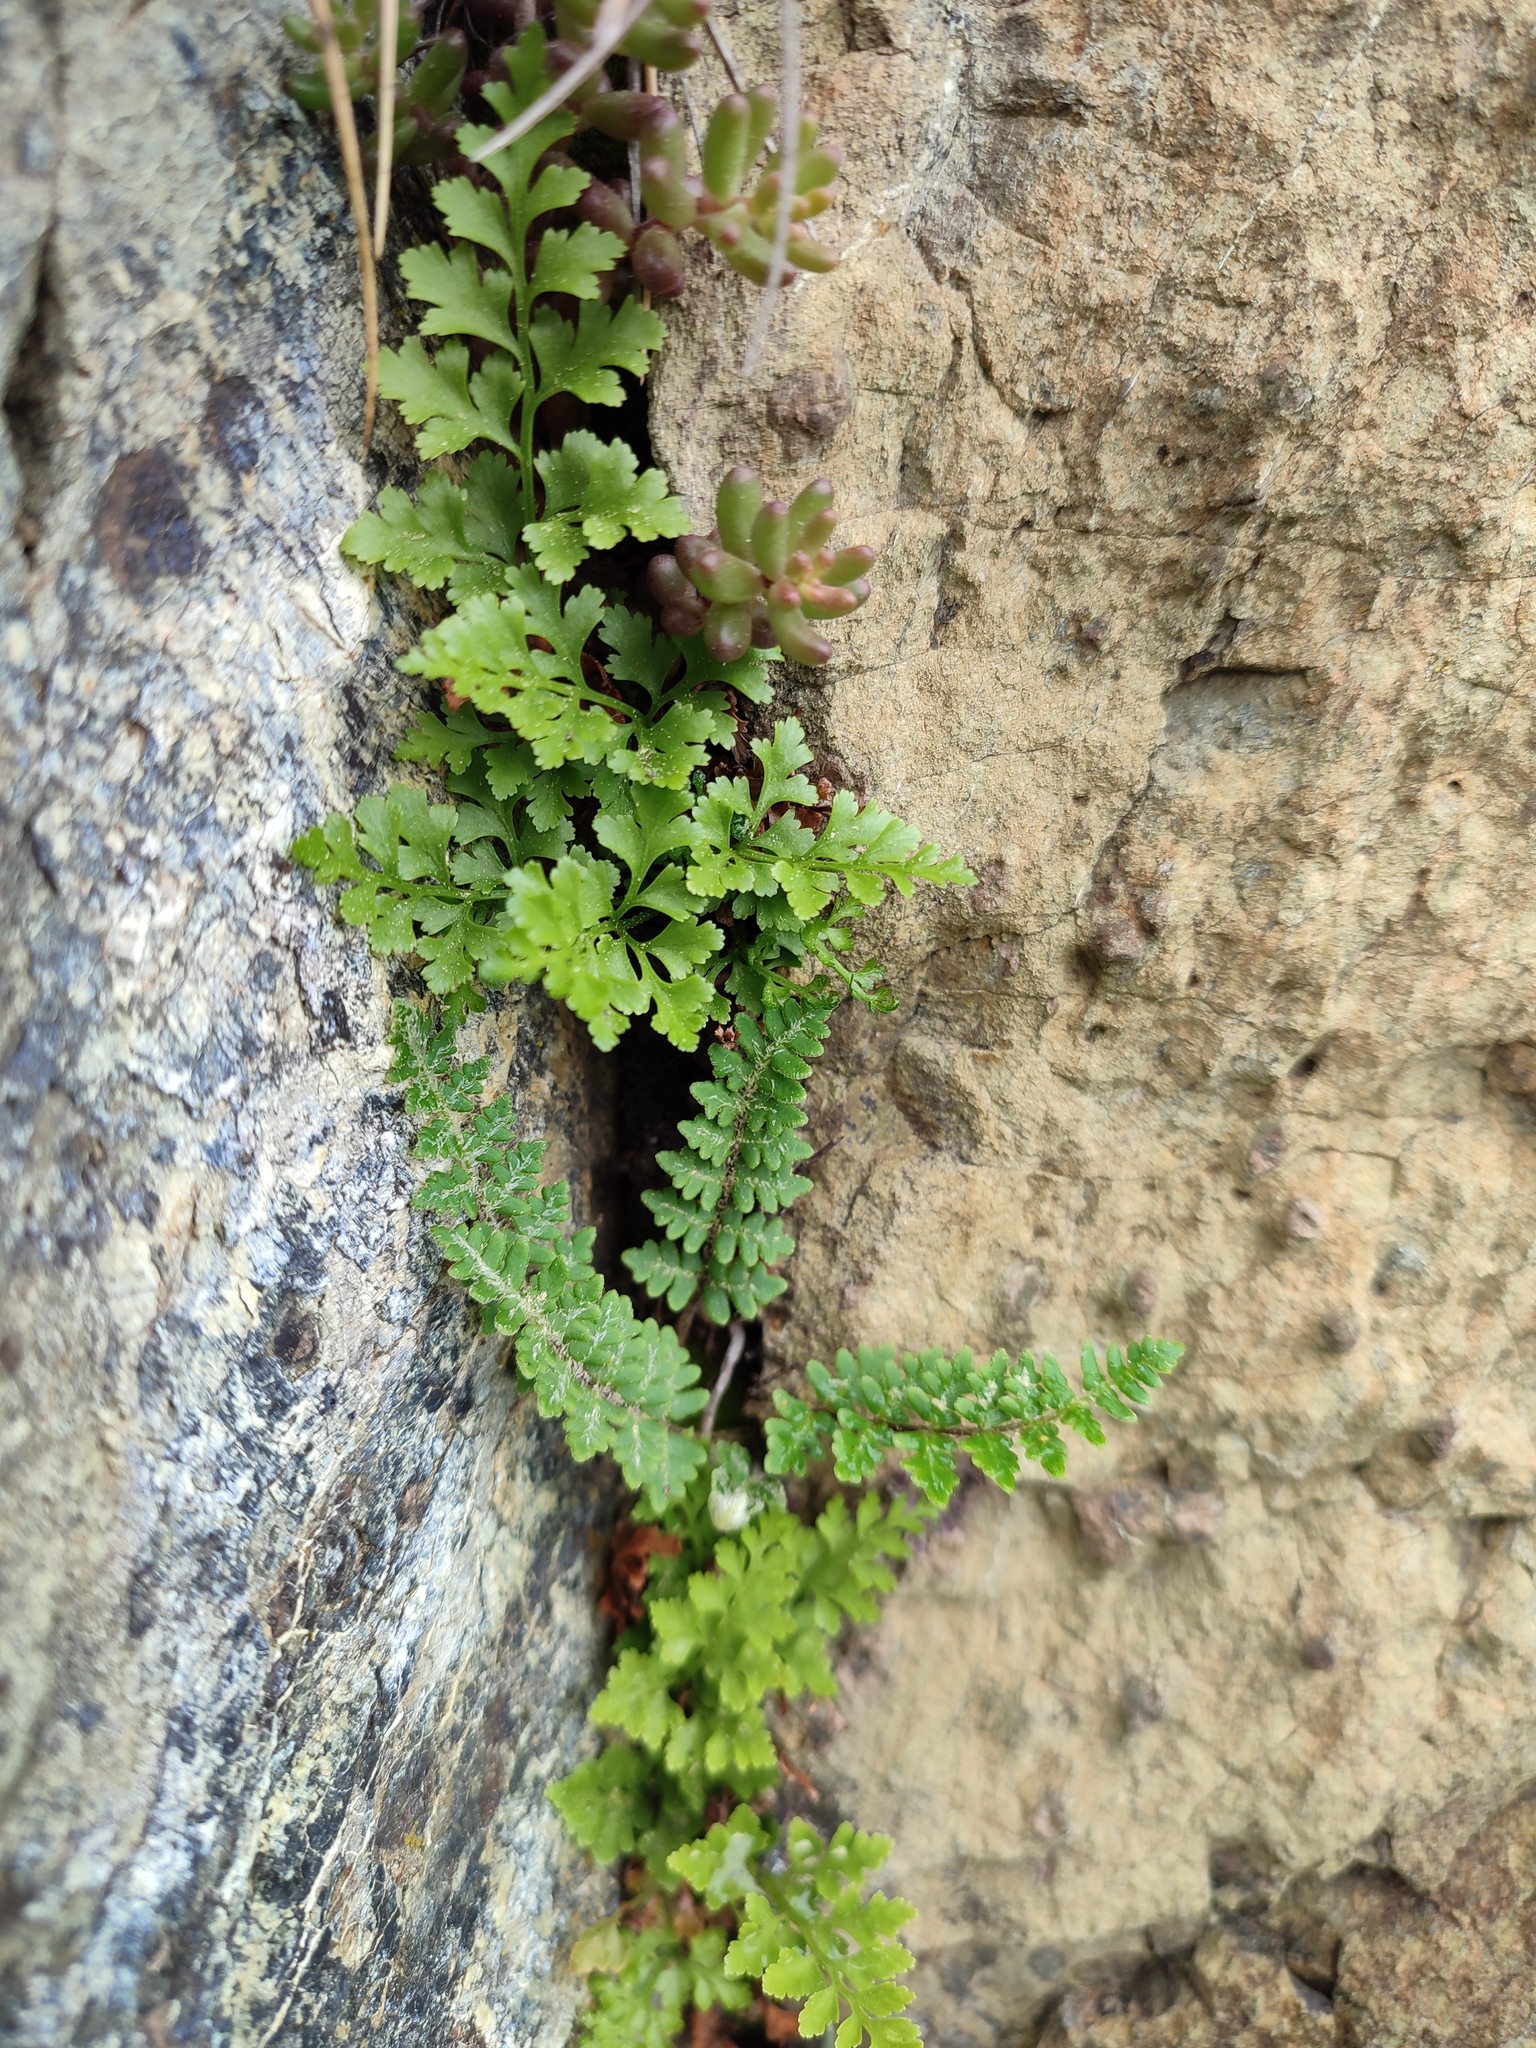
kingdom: Plantae
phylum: Tracheophyta
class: Polypodiopsida
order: Polypodiales
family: Aspleniaceae
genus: Asplenium
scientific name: Asplenium cuneifolium
